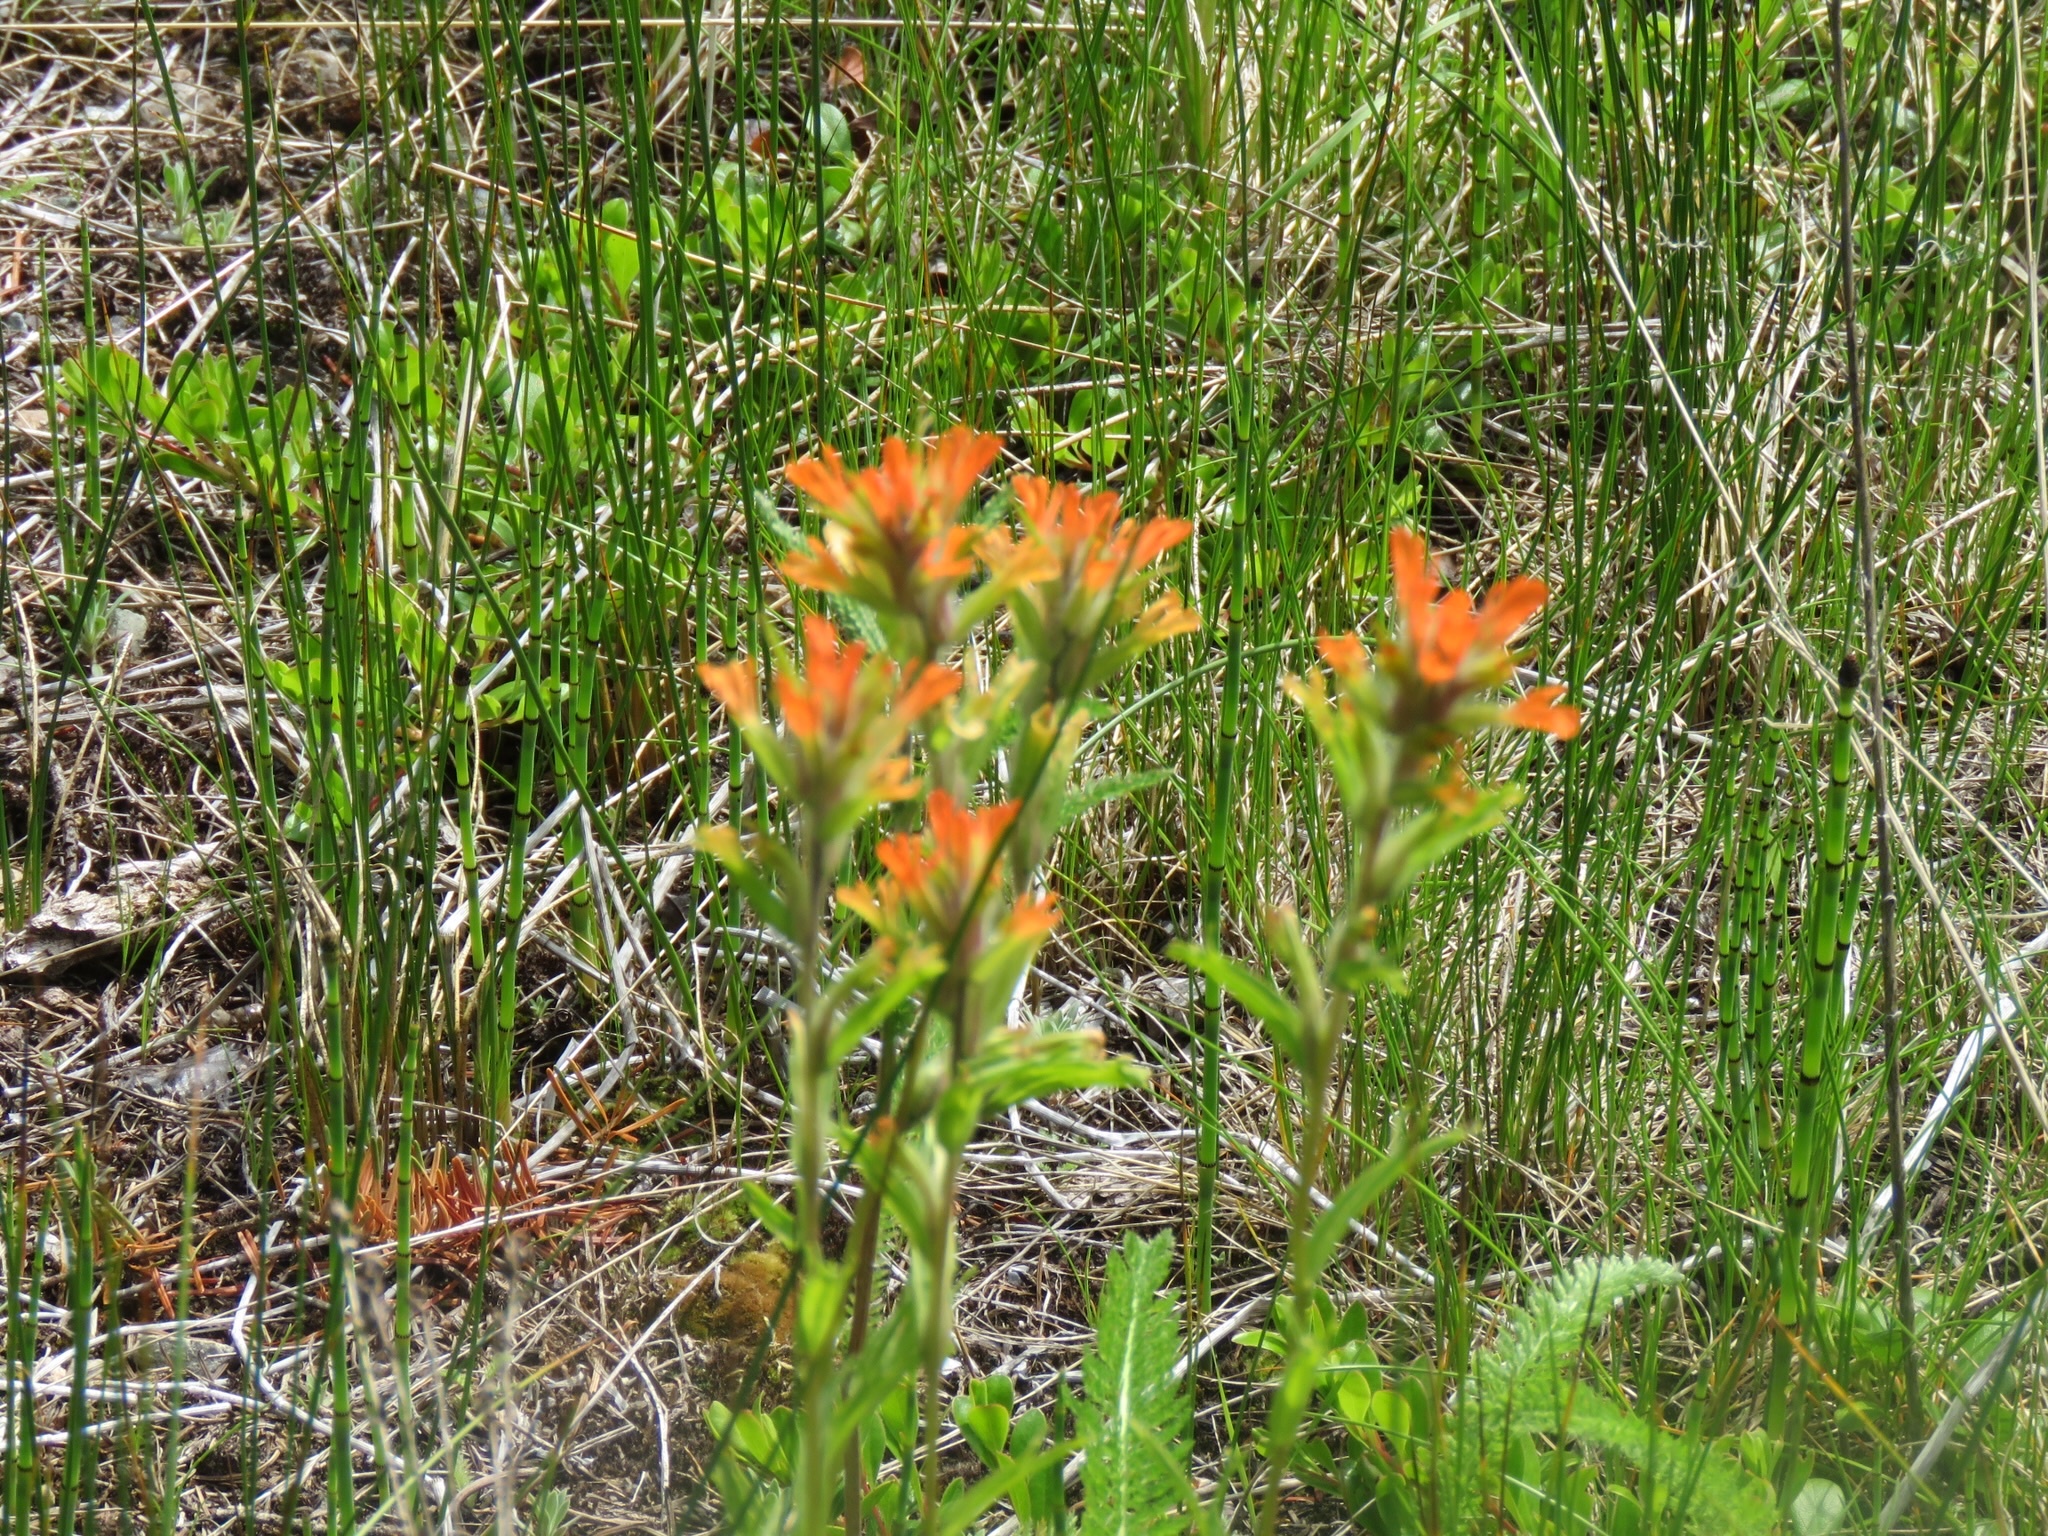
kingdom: Plantae
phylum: Tracheophyta
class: Magnoliopsida
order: Lamiales
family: Orobanchaceae
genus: Castilleja
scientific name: Castilleja hispida
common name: Bristly paintbrush
